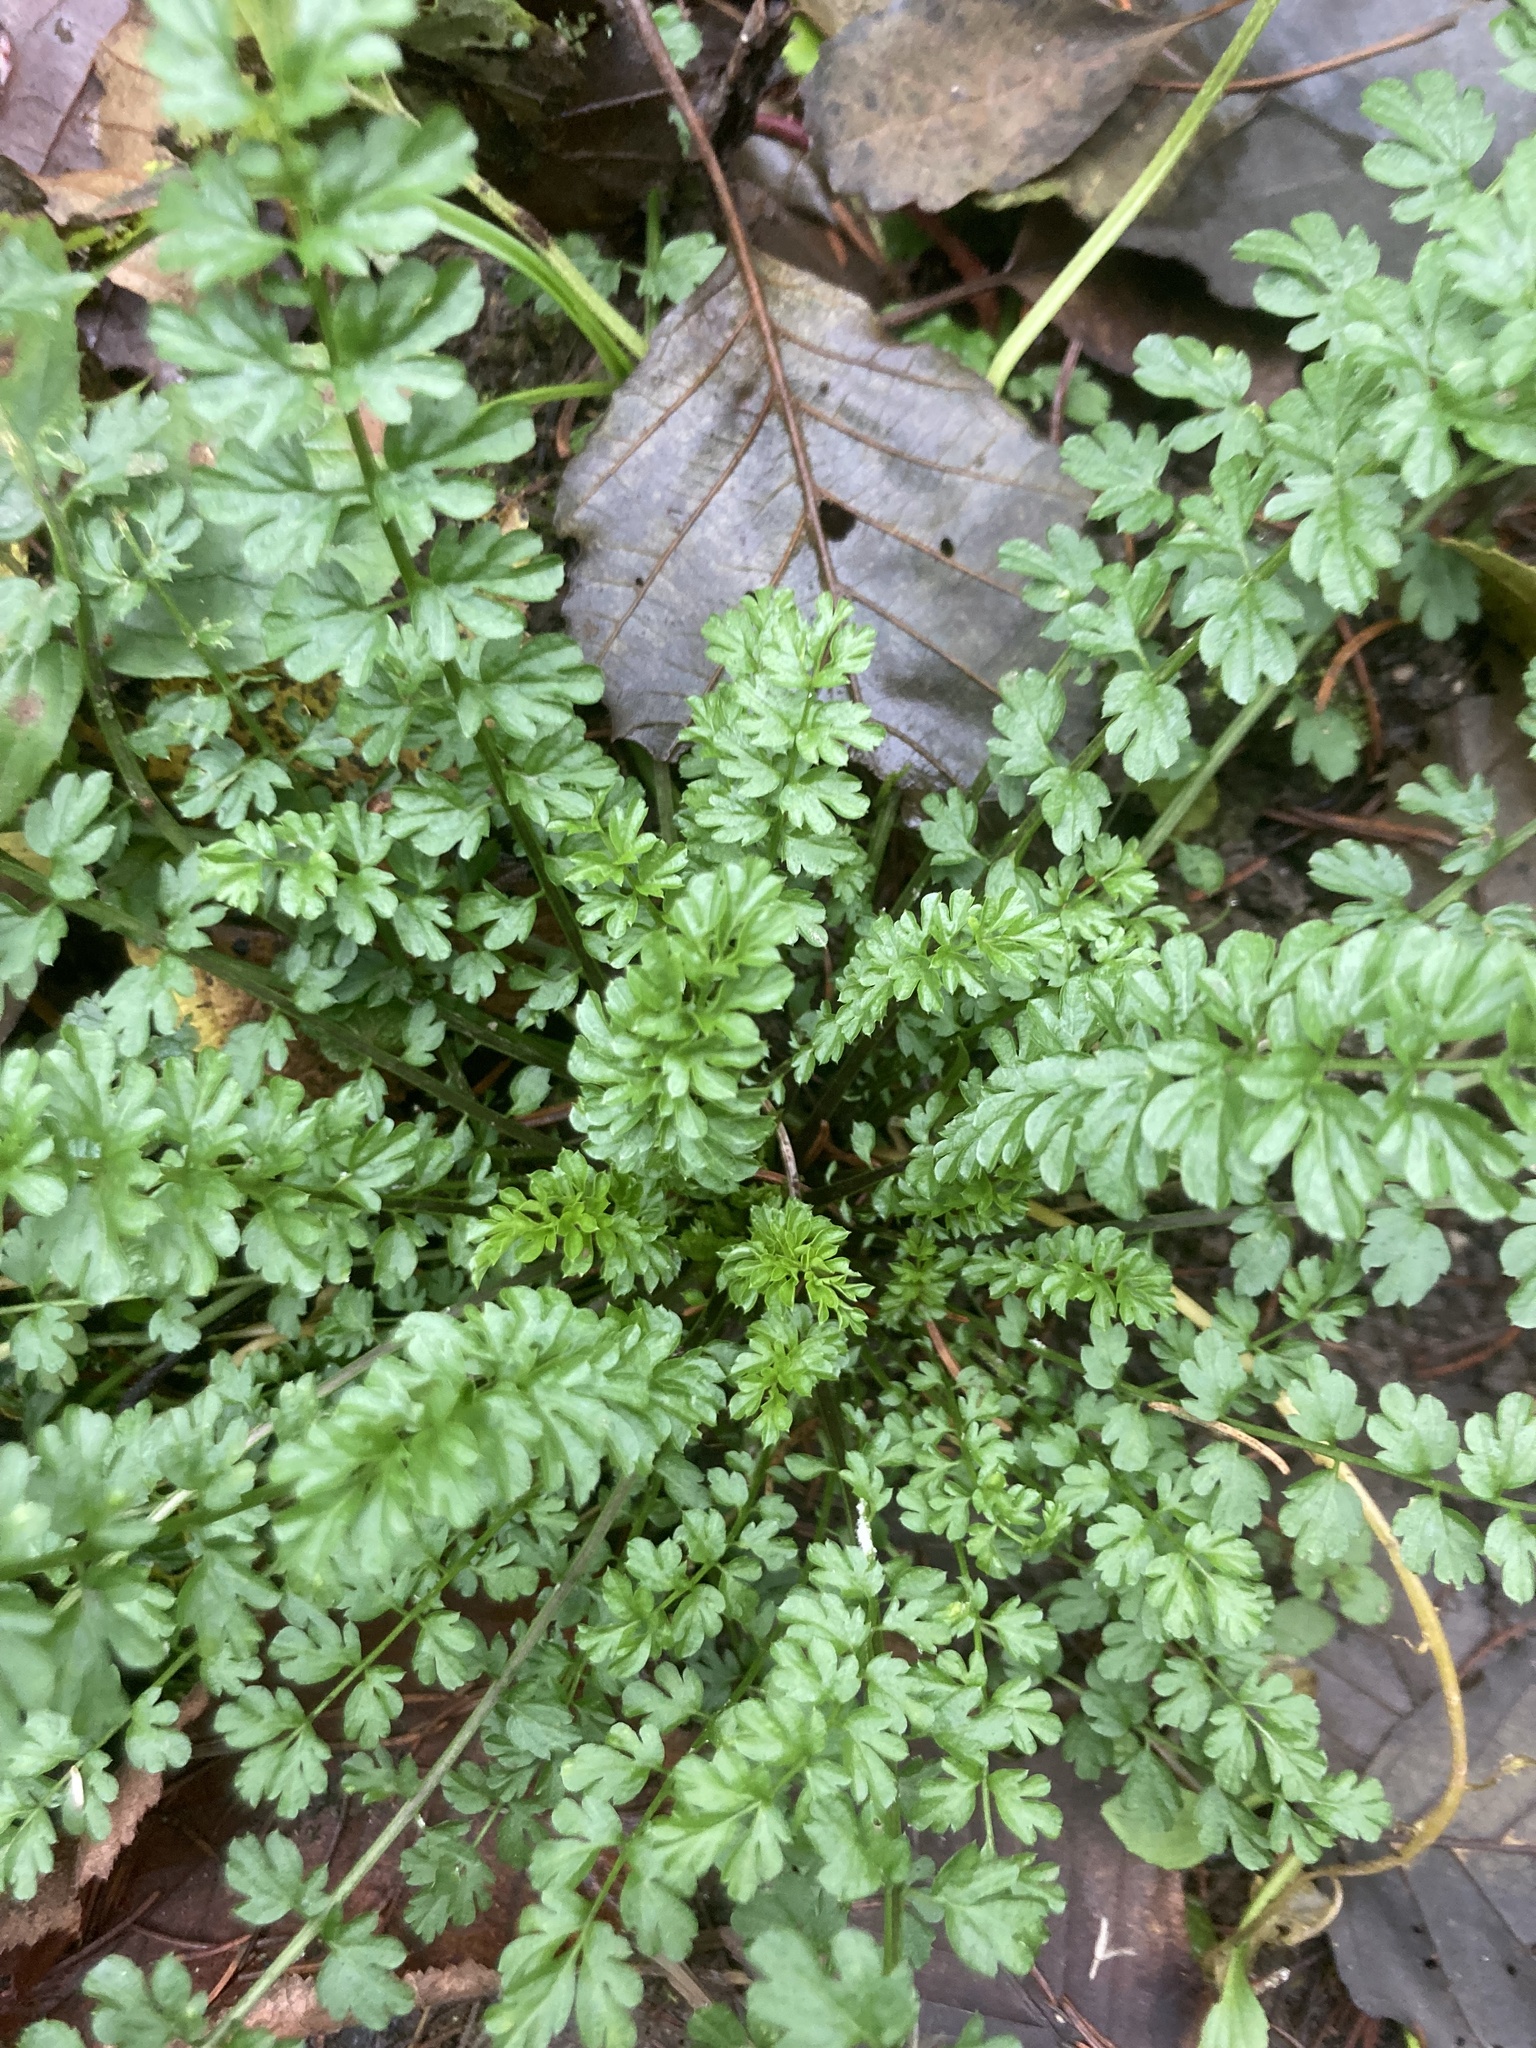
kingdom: Plantae
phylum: Tracheophyta
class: Magnoliopsida
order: Brassicales
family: Brassicaceae
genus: Cardamine
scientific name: Cardamine impatiens
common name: Narrow-leaved bitter-cress
